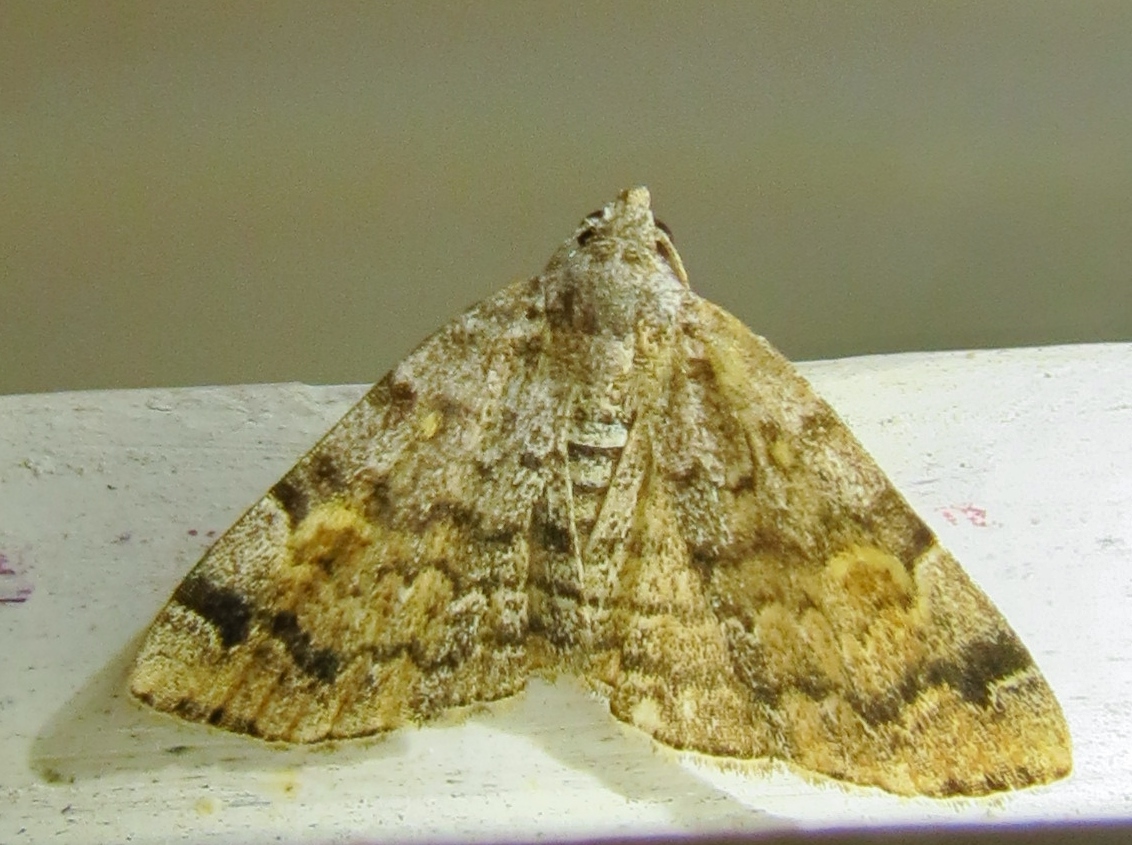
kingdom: Animalia
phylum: Arthropoda
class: Insecta
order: Lepidoptera
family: Erebidae
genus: Idia
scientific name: Idia americalis
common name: American idia moth
